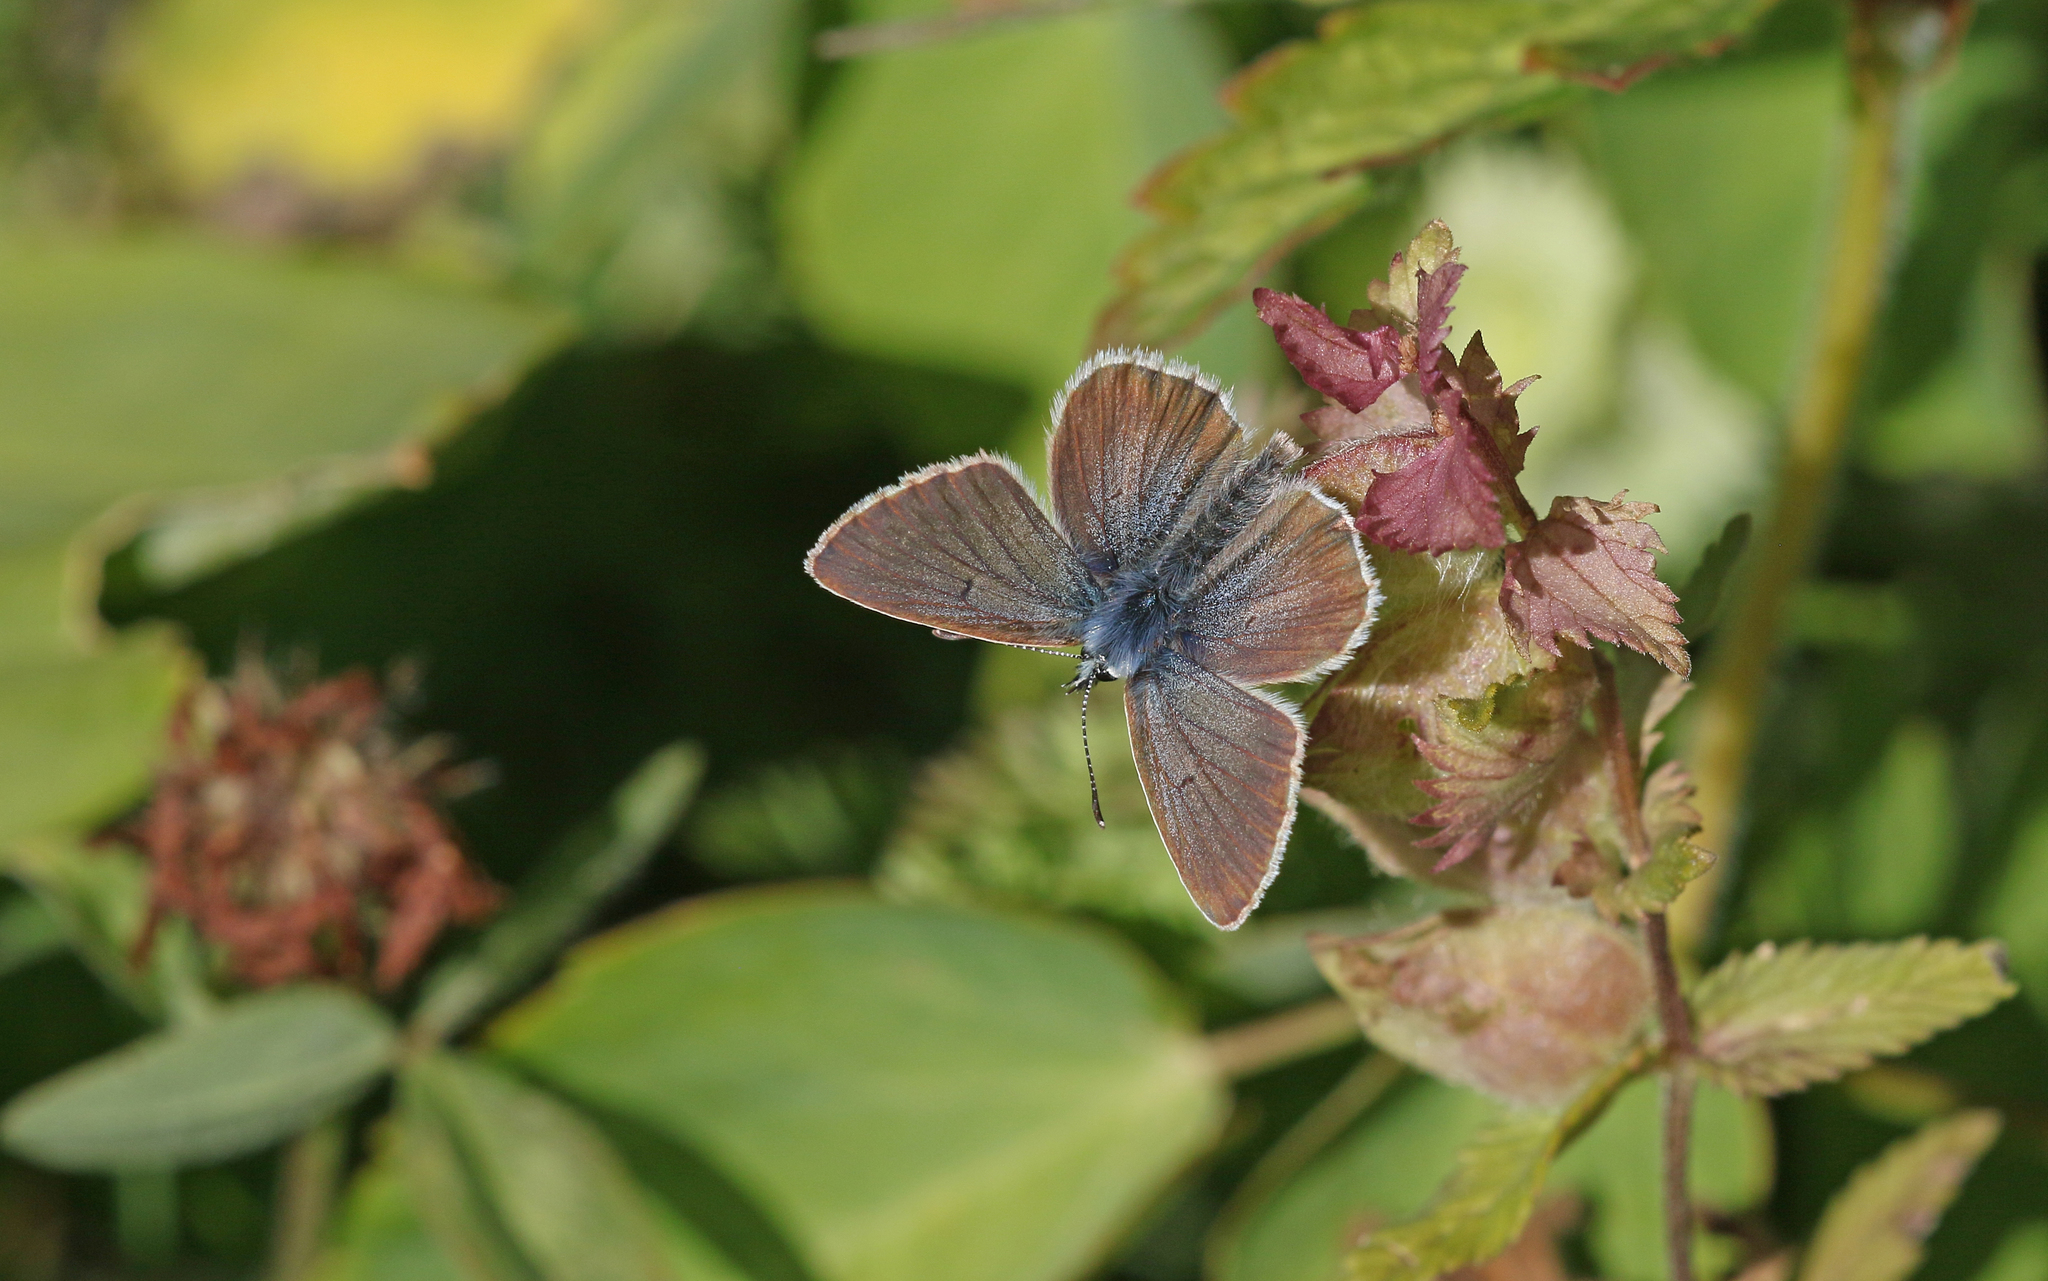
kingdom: Animalia
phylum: Arthropoda
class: Insecta
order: Lepidoptera
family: Lycaenidae
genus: Pseudoaricia
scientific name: Pseudoaricia nicias
